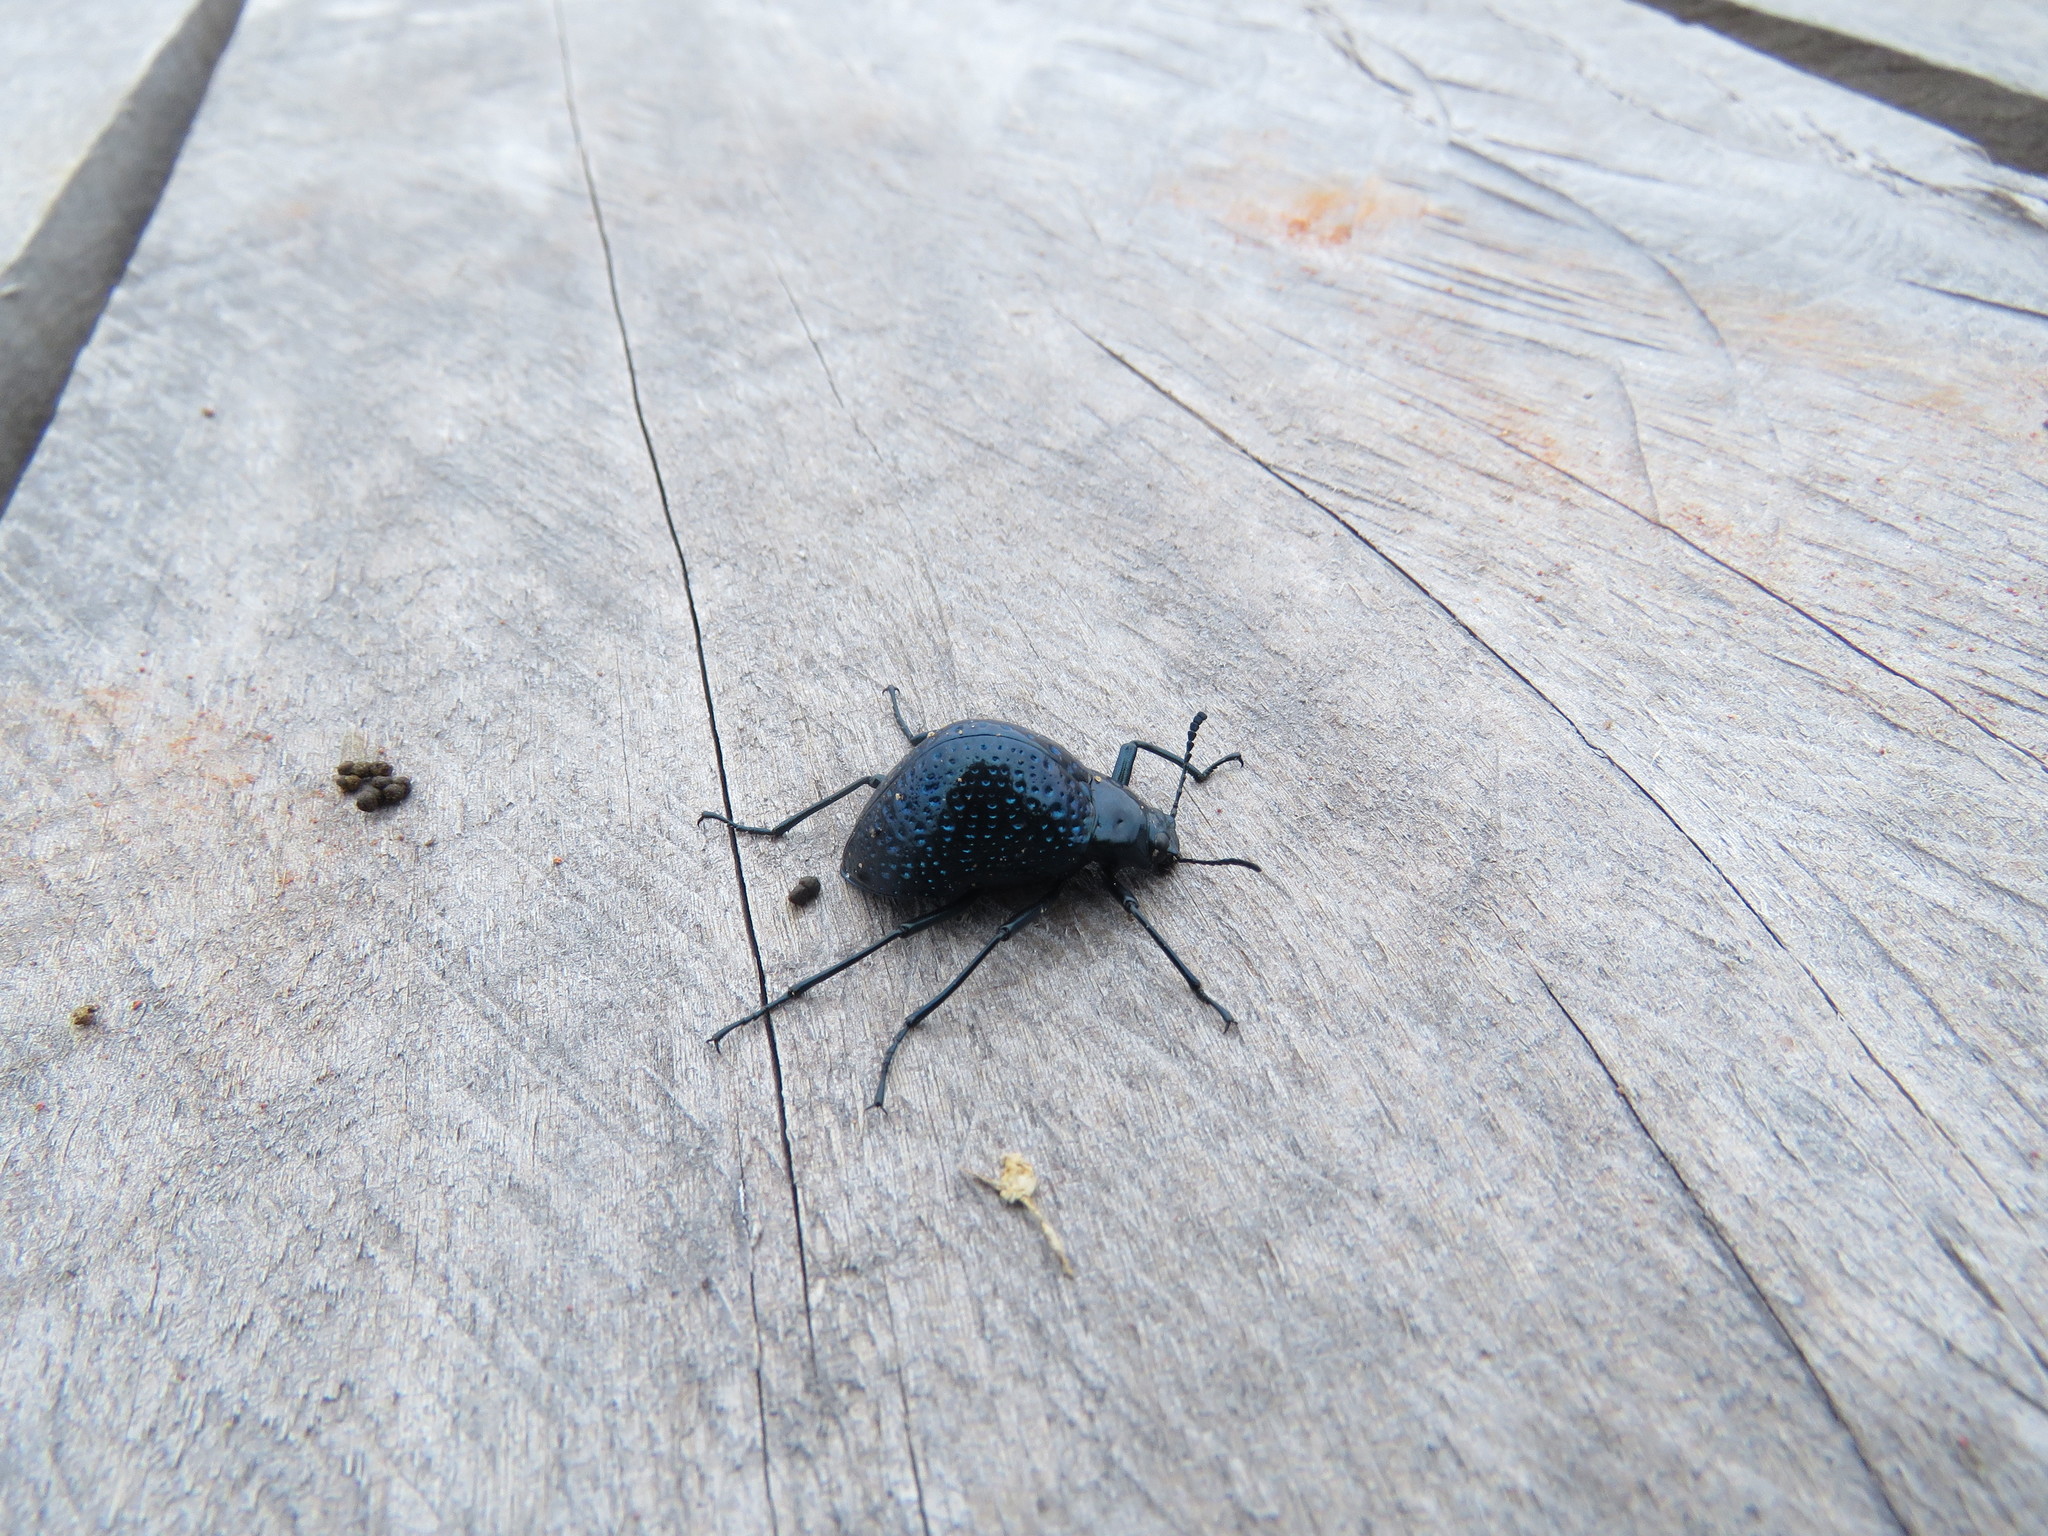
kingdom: Animalia
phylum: Arthropoda
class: Insecta
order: Coleoptera
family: Tenebrionidae
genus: Cuphotes
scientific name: Cuphotes
